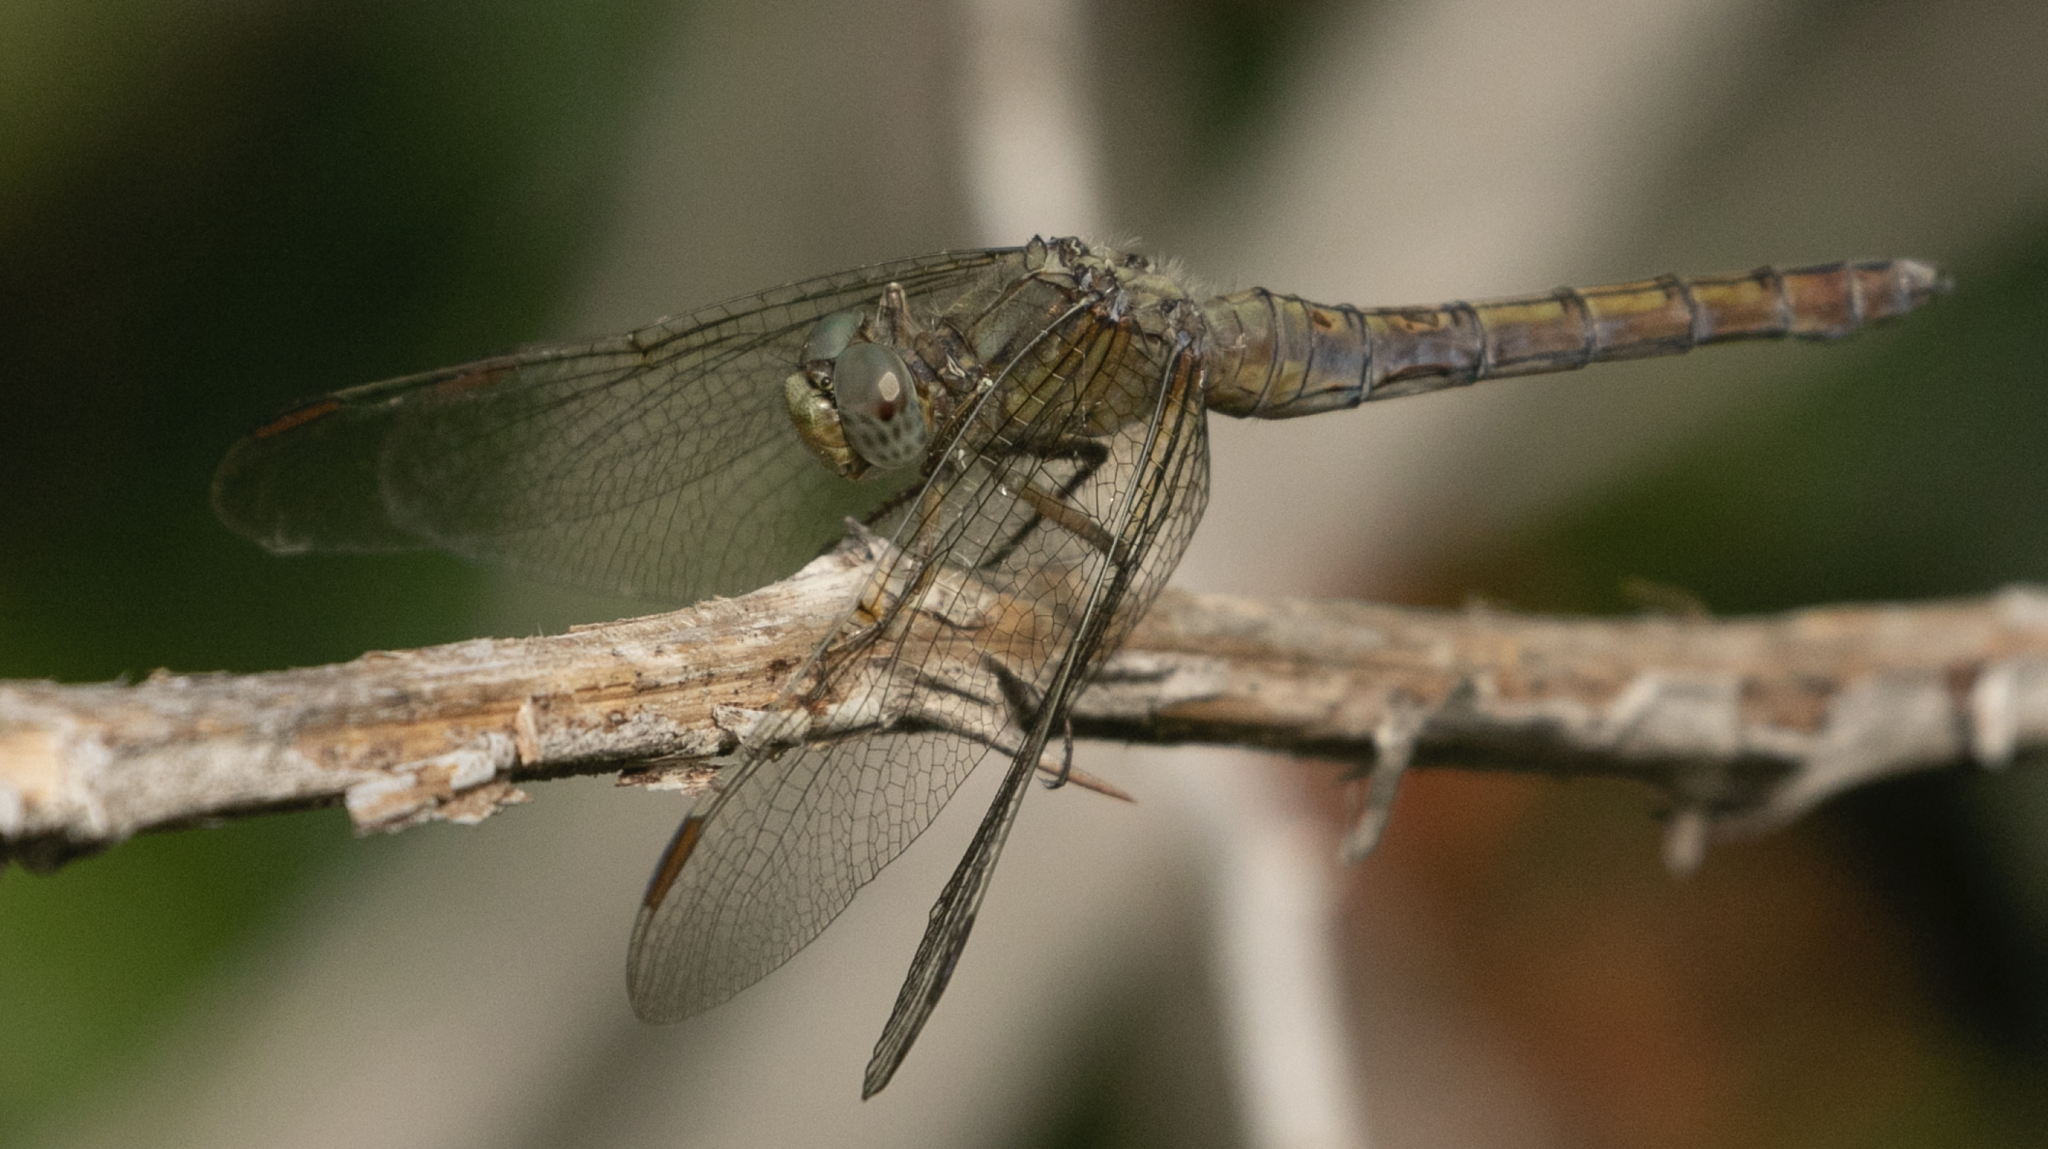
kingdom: Animalia
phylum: Arthropoda
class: Insecta
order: Odonata
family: Libellulidae
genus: Orthetrum
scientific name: Orthetrum coerulescens
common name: Keeled skimmer
